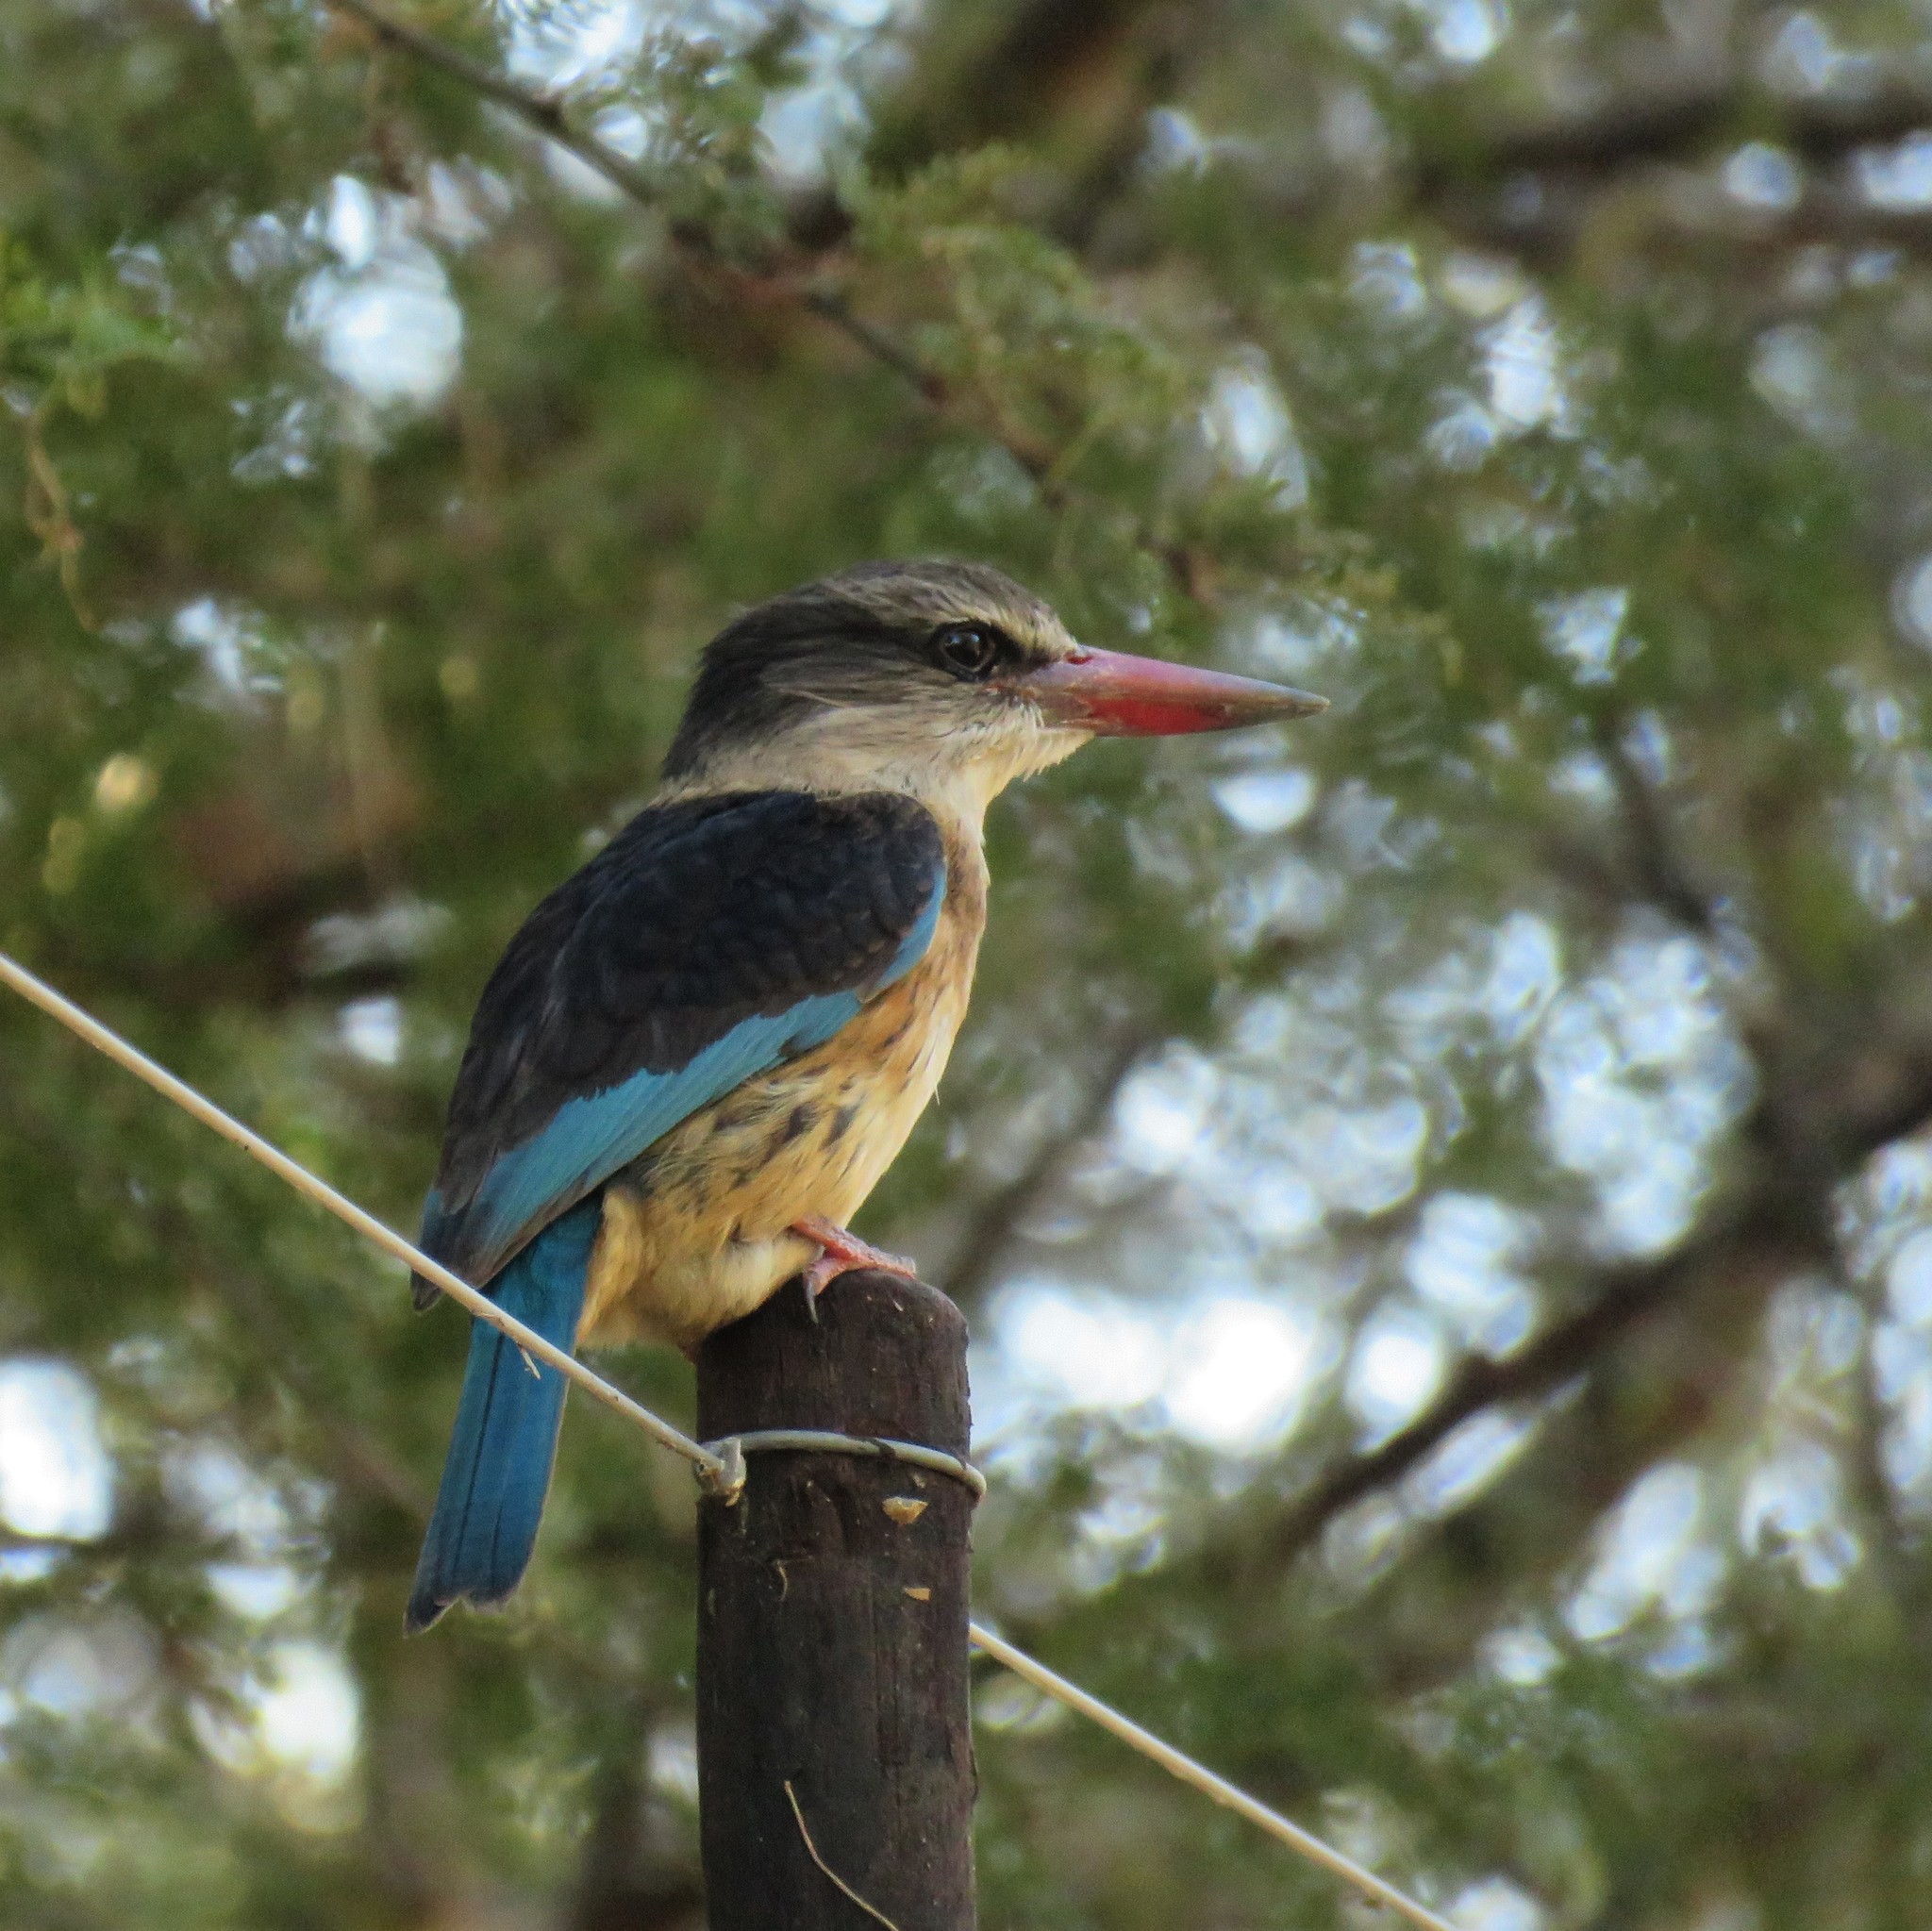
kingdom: Animalia
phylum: Chordata
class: Aves
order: Coraciiformes
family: Alcedinidae
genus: Halcyon
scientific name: Halcyon albiventris
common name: Brown-hooded kingfisher
